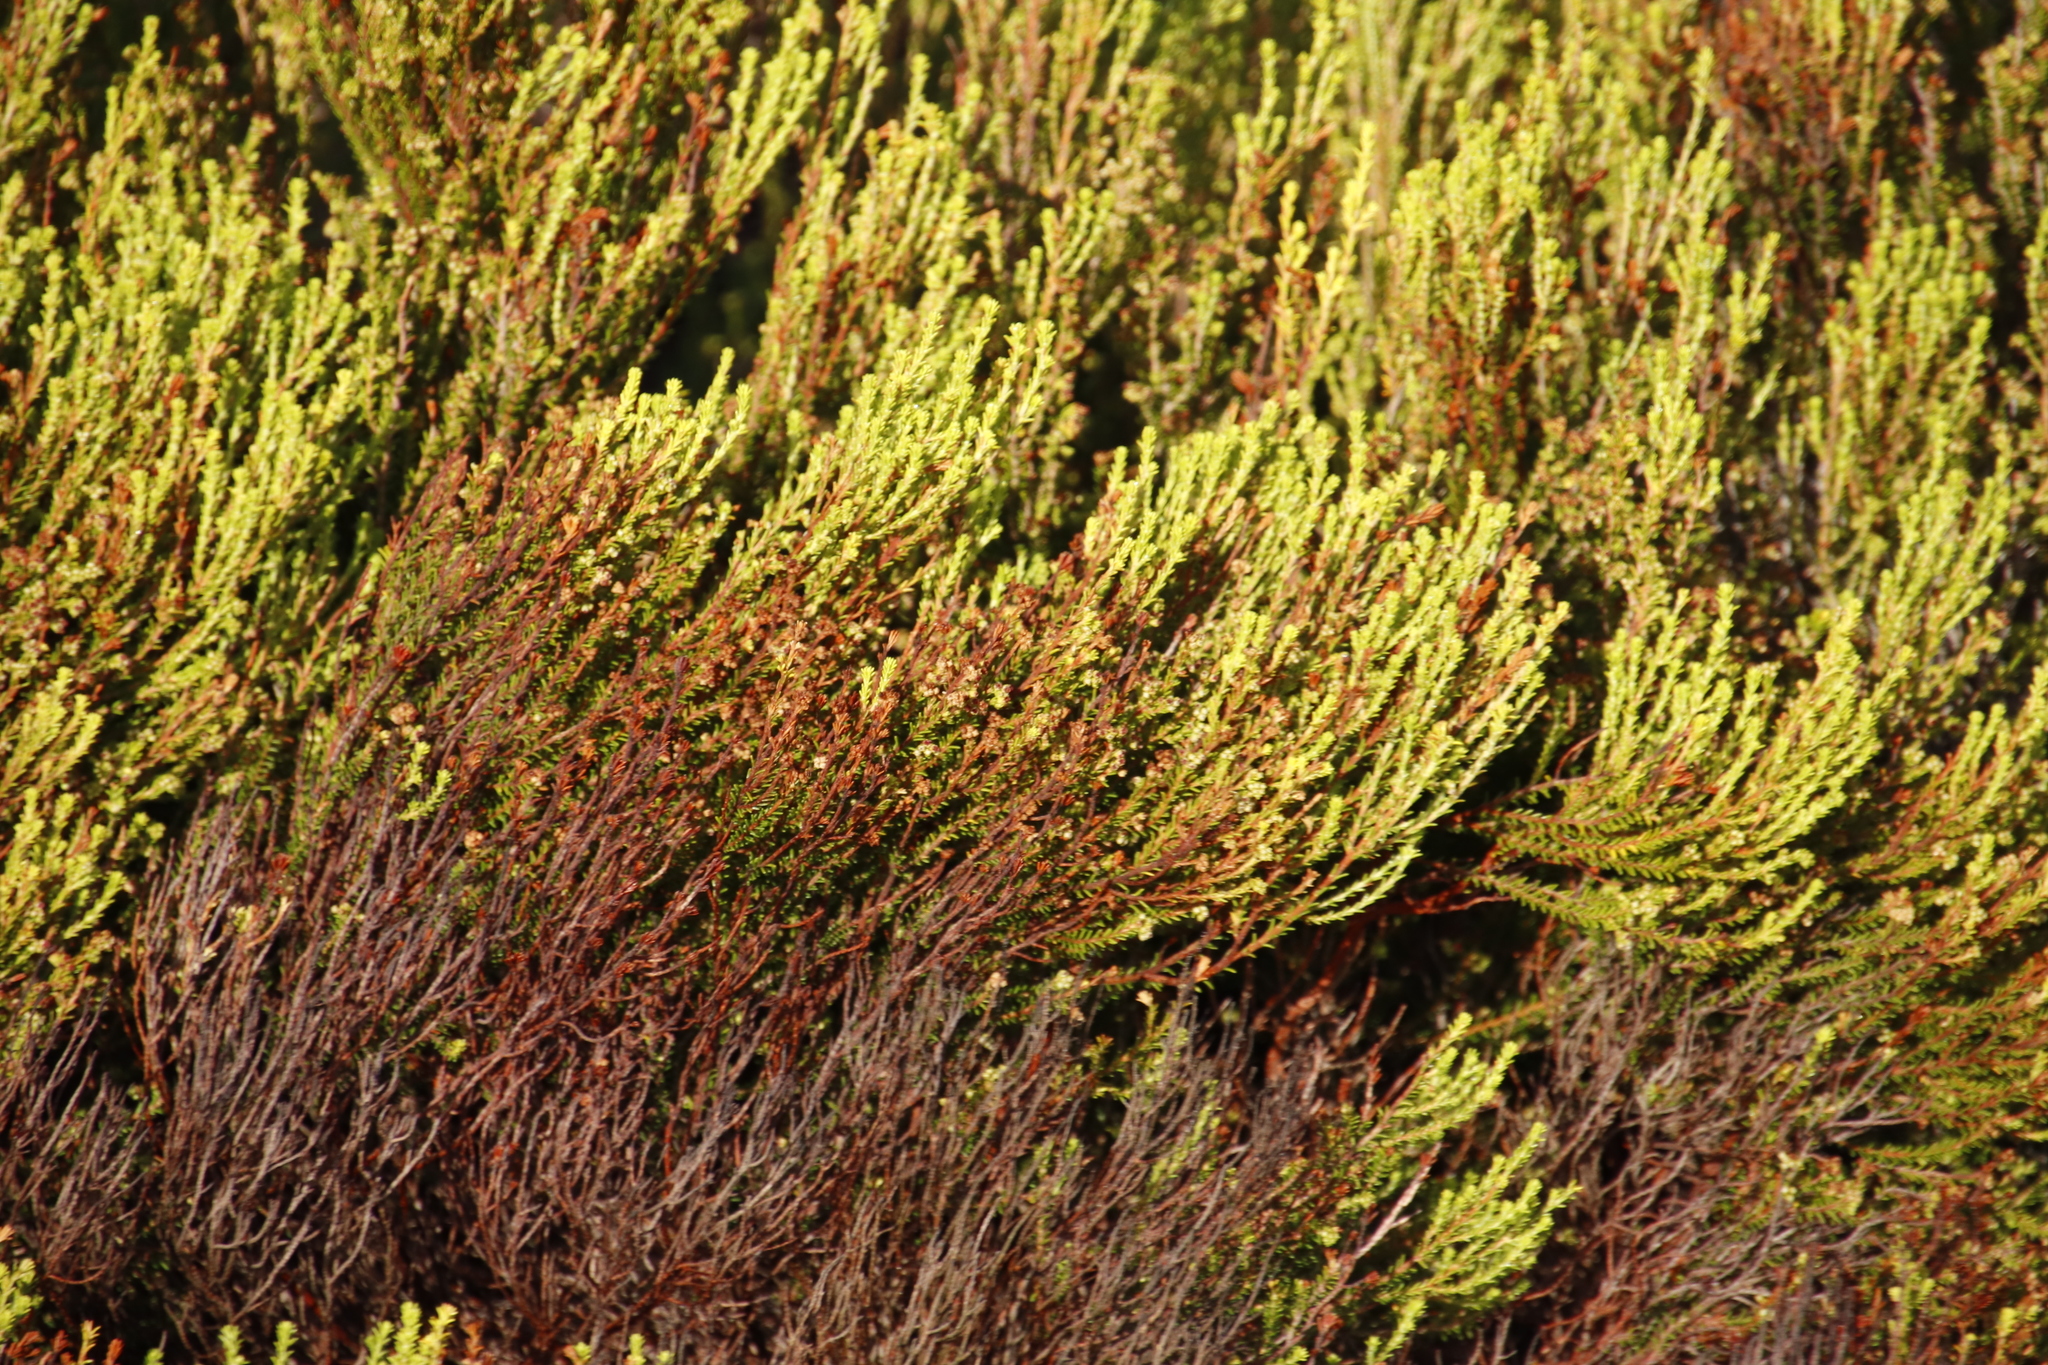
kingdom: Plantae
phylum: Tracheophyta
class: Magnoliopsida
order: Ericales
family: Ericaceae
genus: Erica
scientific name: Erica tristis
